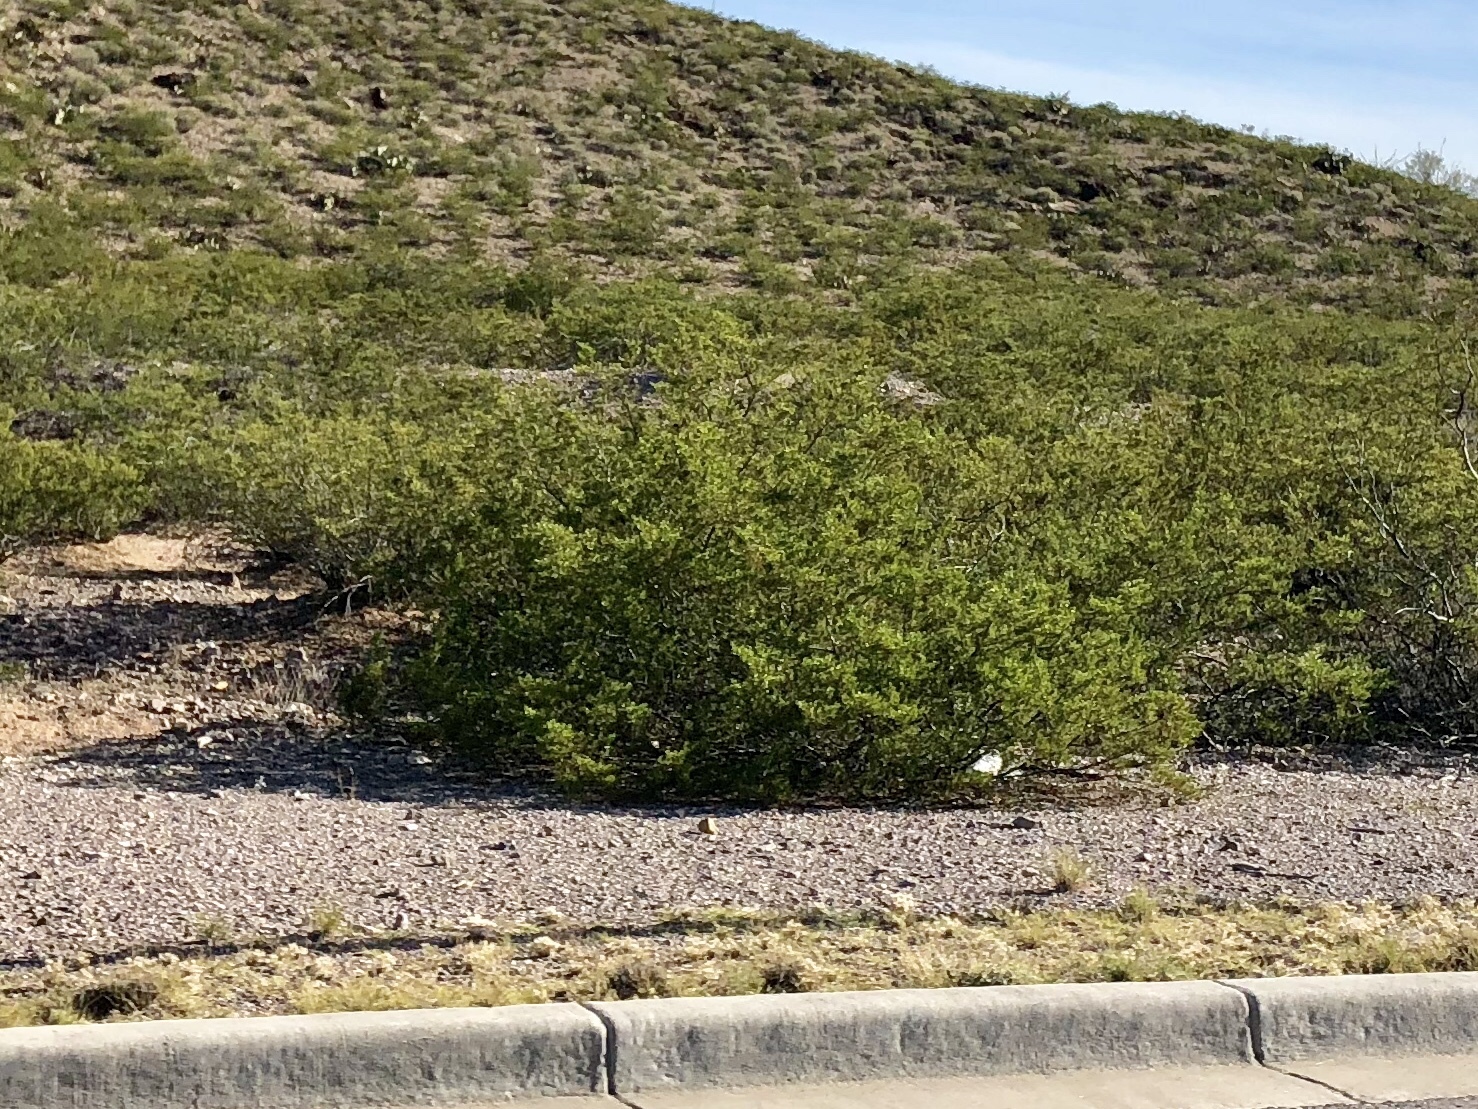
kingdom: Plantae
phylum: Tracheophyta
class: Magnoliopsida
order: Zygophyllales
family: Zygophyllaceae
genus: Larrea
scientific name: Larrea tridentata
